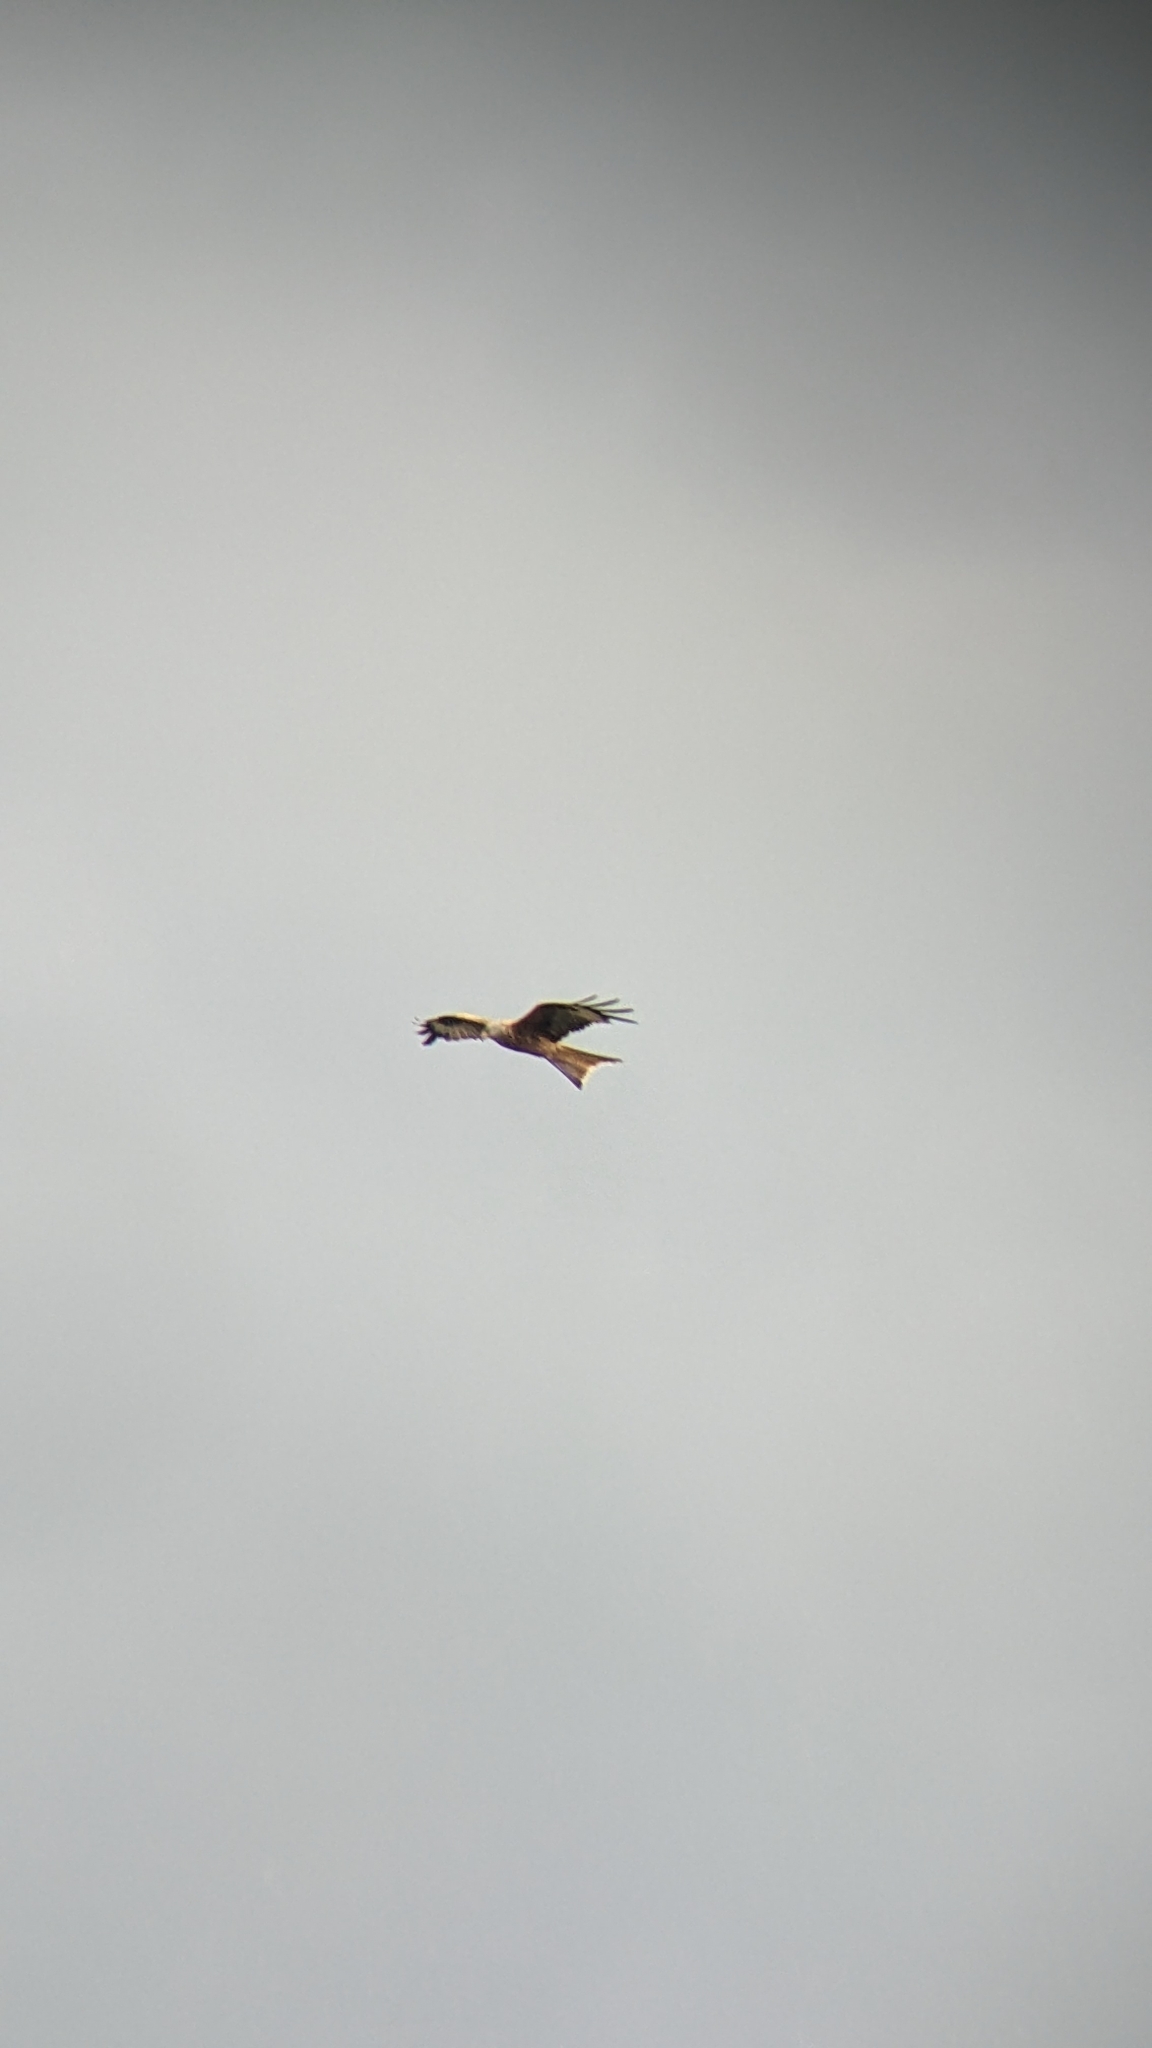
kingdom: Animalia
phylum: Chordata
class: Aves
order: Accipitriformes
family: Accipitridae
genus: Milvus
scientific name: Milvus milvus
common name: Red kite
